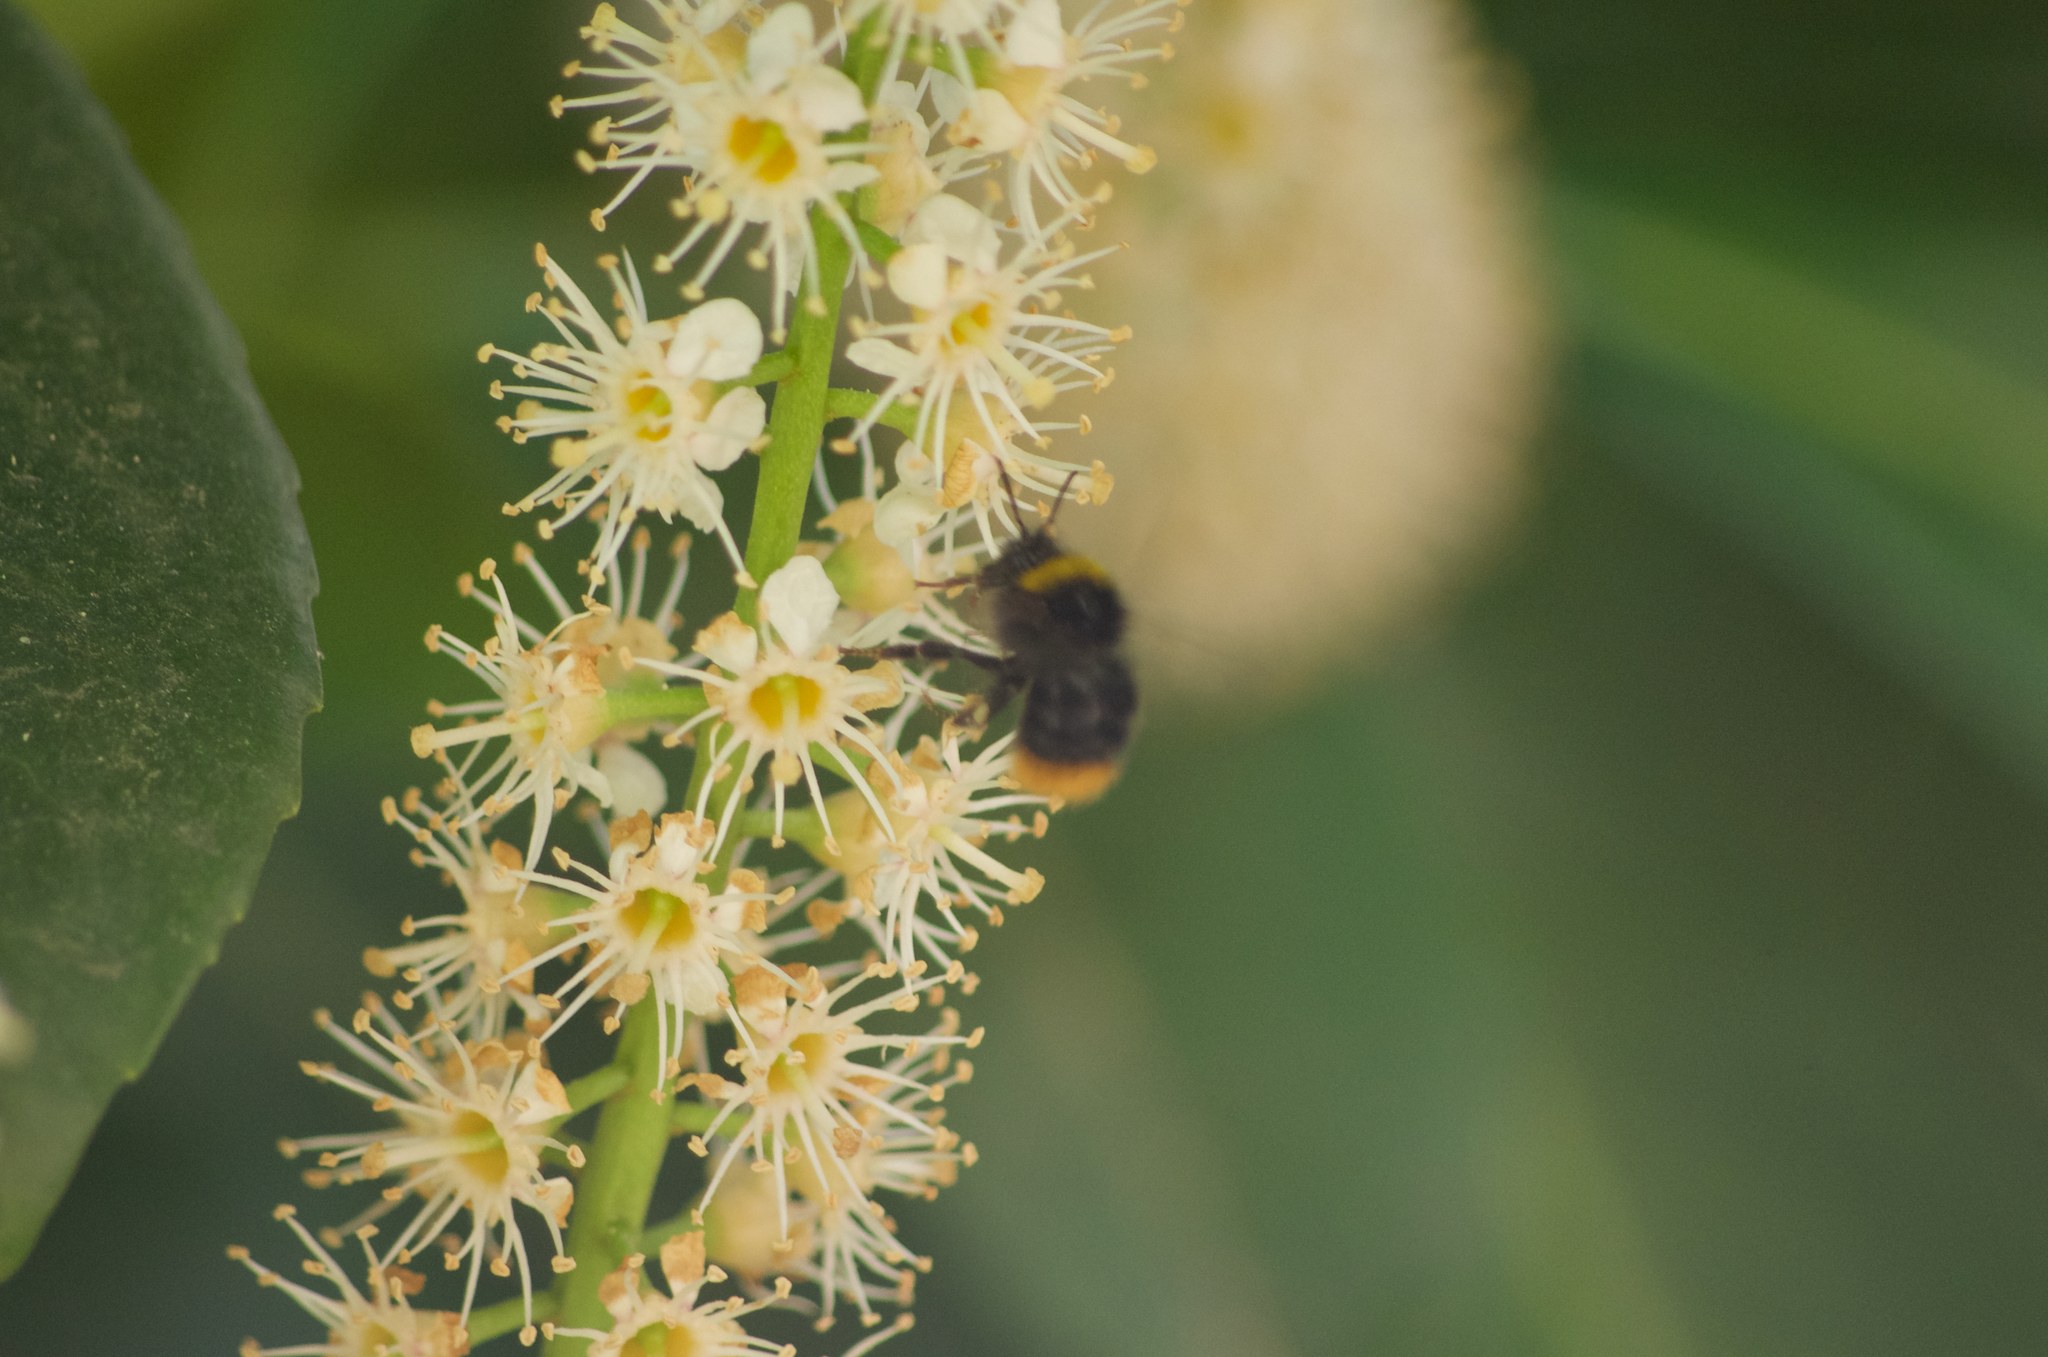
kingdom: Animalia
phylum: Arthropoda
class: Insecta
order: Hymenoptera
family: Apidae
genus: Bombus
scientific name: Bombus pratorum
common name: Early humble-bee
